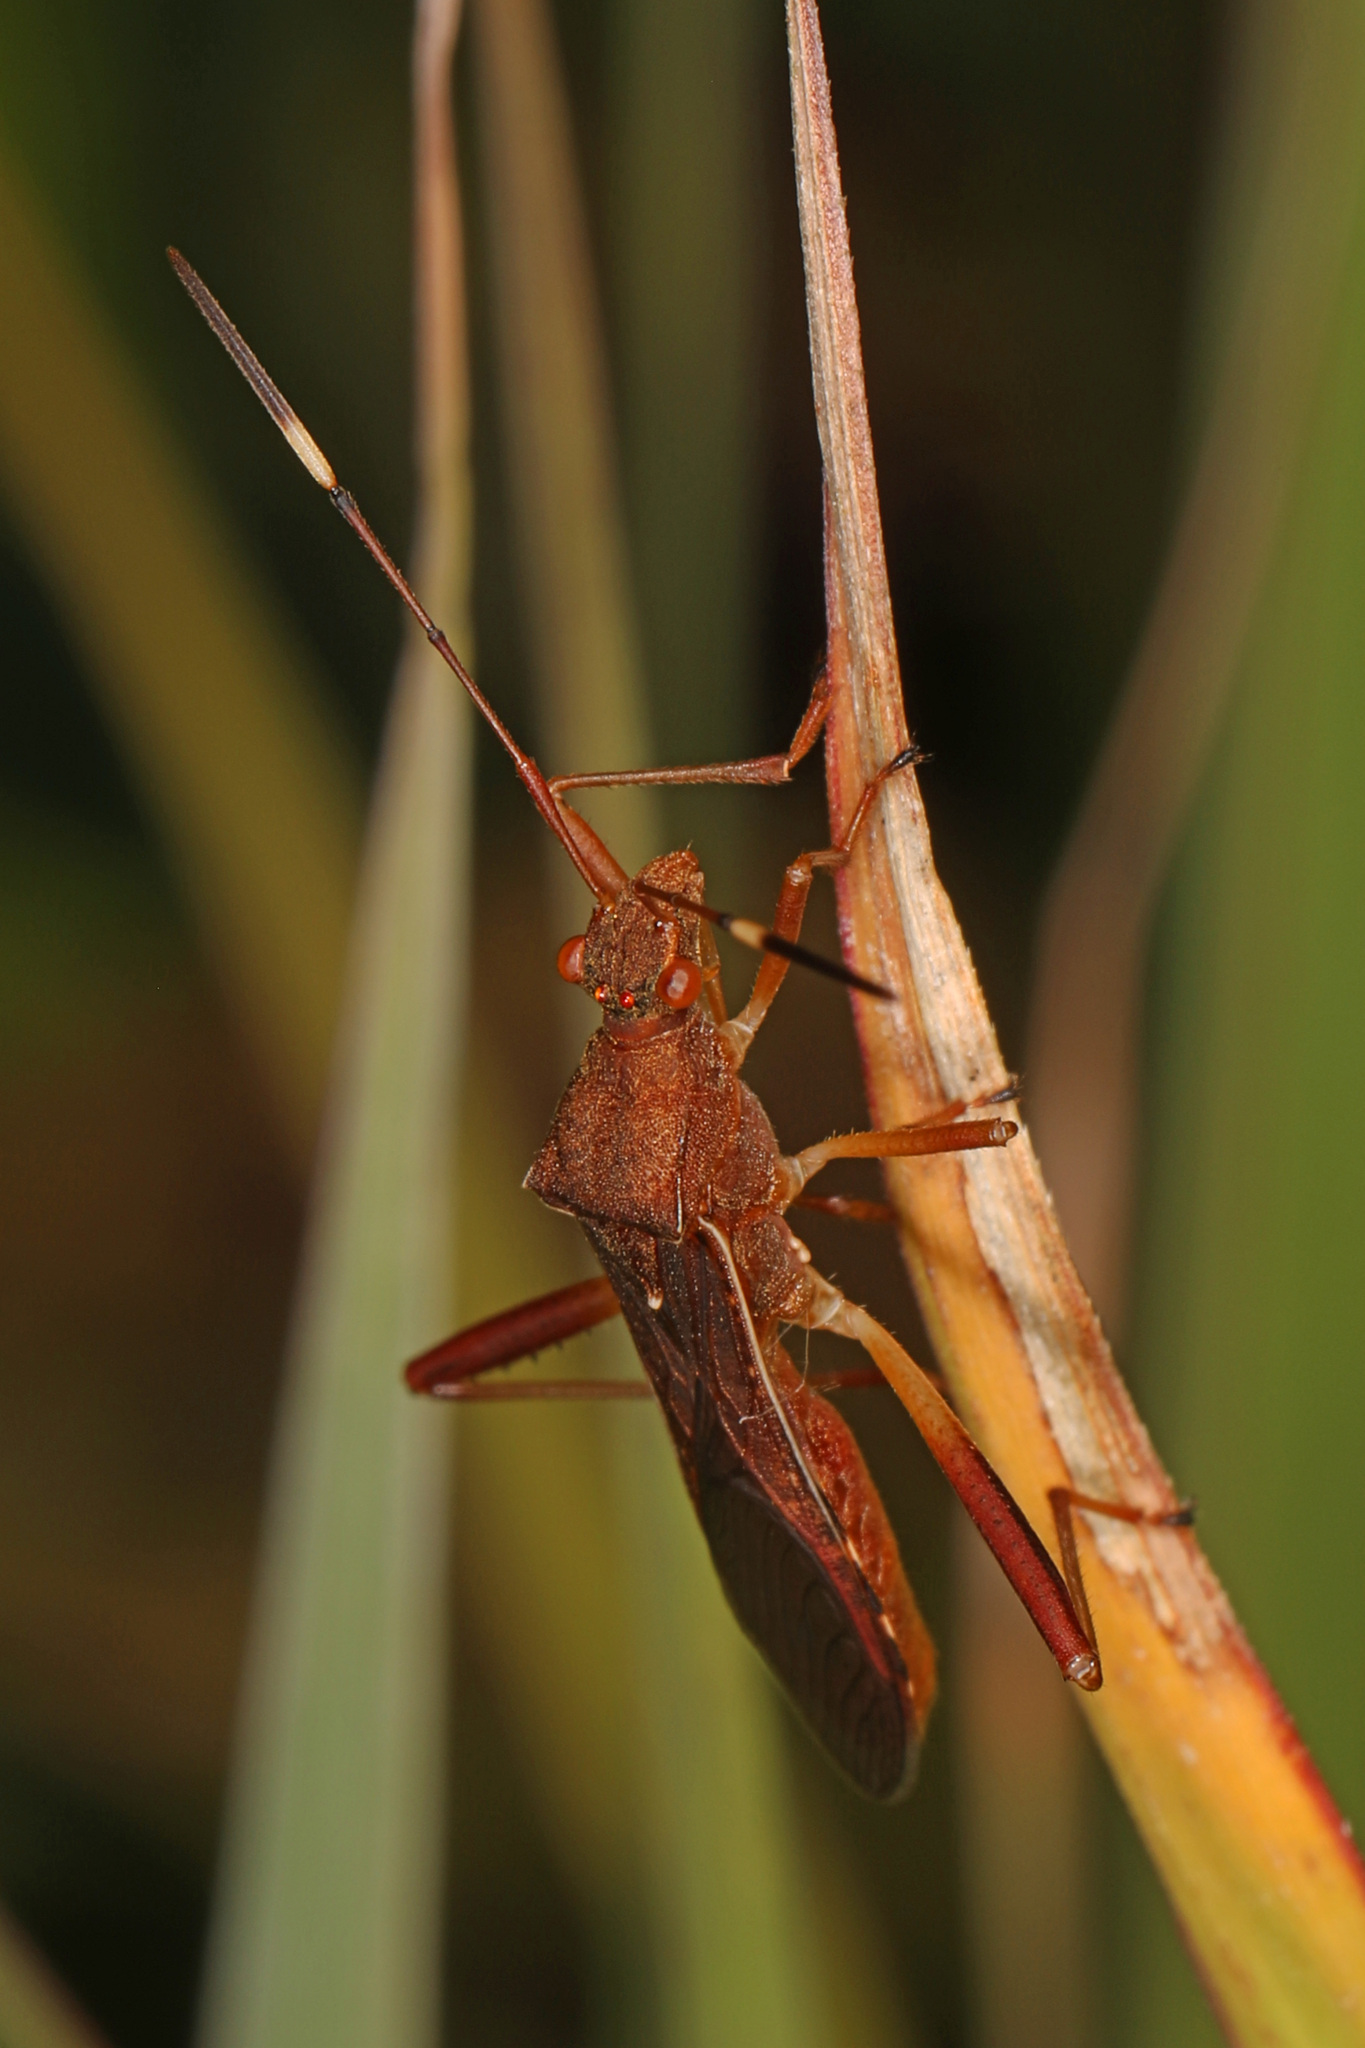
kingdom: Animalia
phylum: Arthropoda
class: Insecta
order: Hemiptera
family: Alydidae
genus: Megalotomus
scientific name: Megalotomus quinquespinosus
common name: Lupine bug
